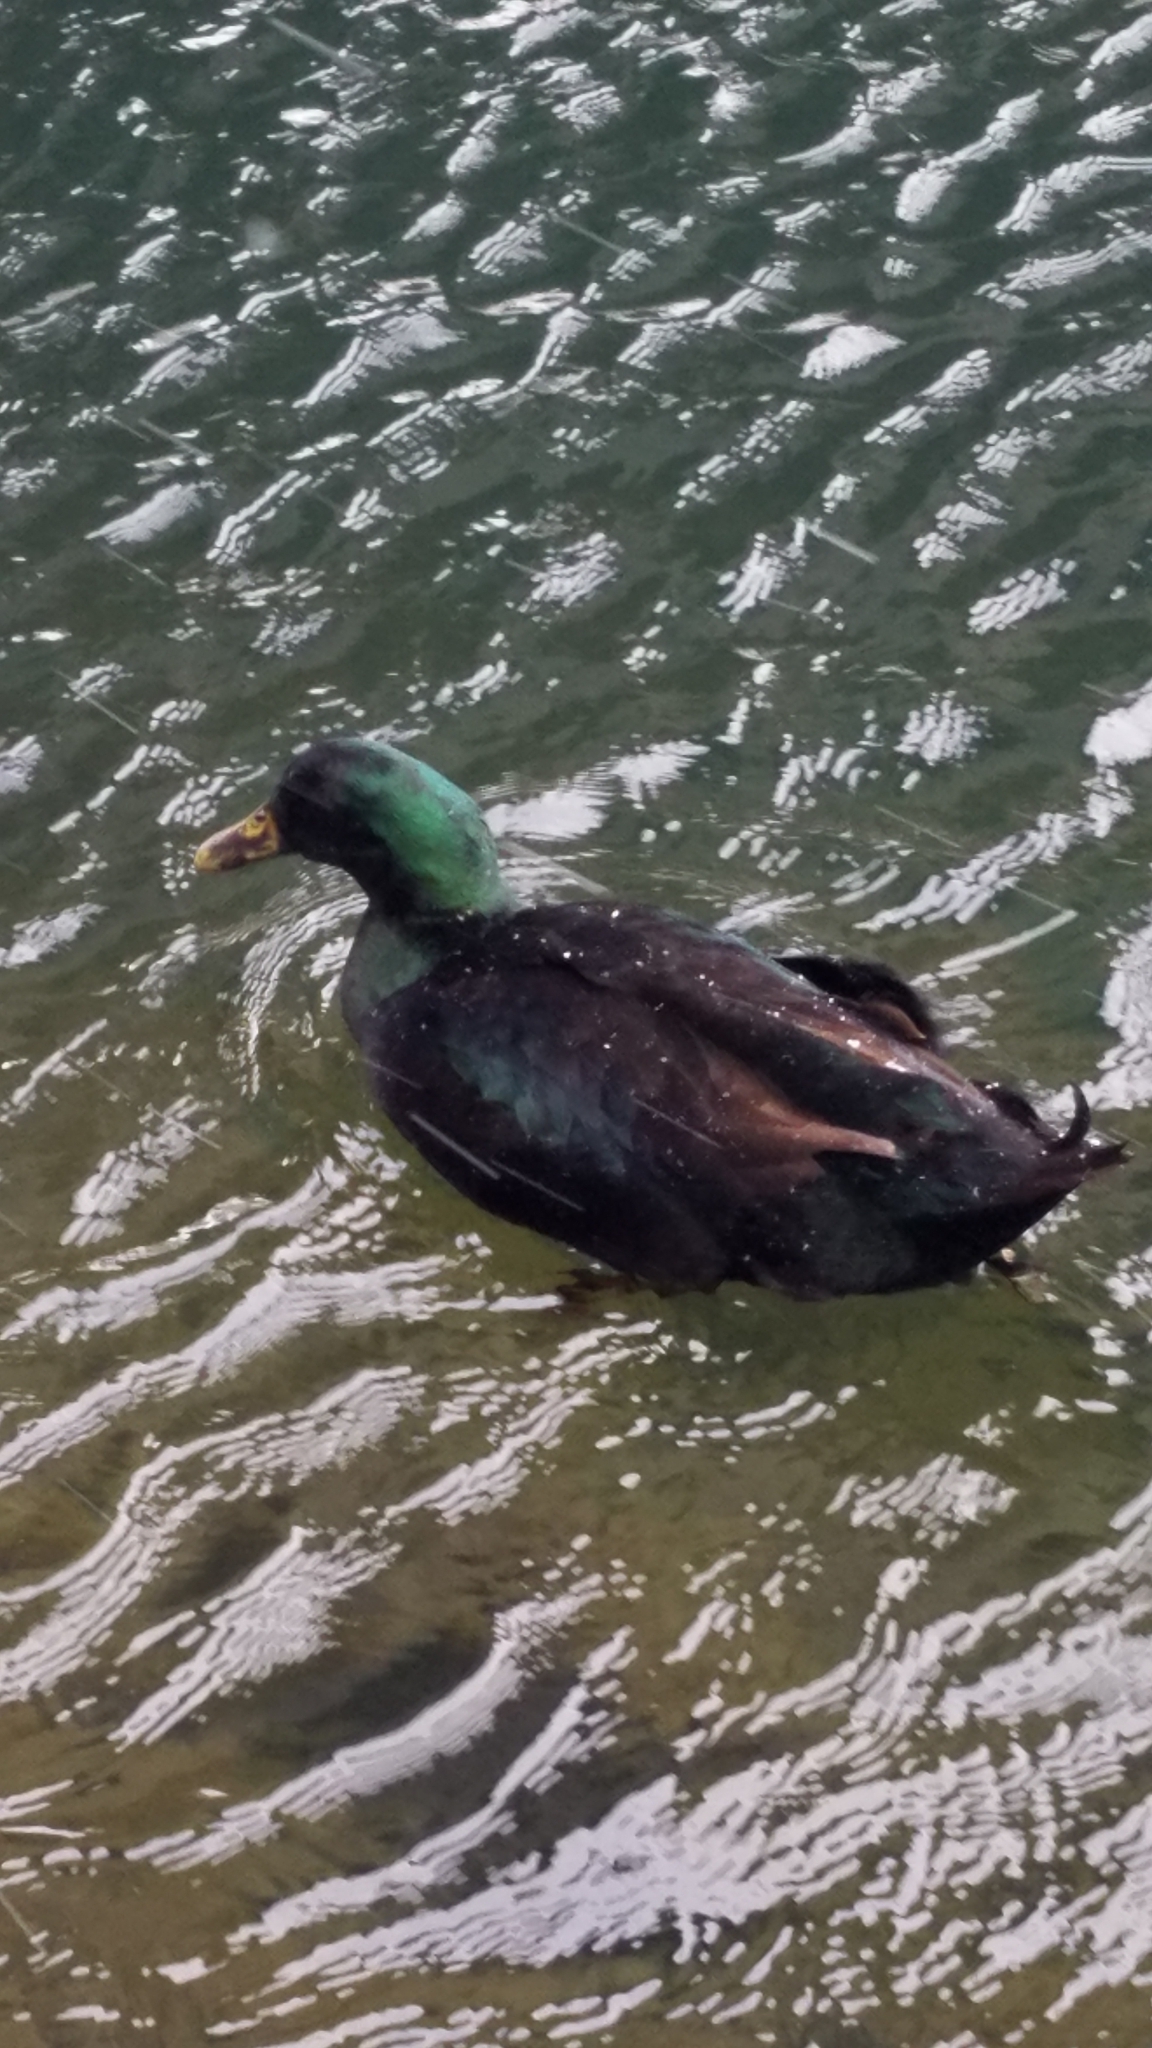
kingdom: Animalia
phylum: Chordata
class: Aves
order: Anseriformes
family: Anatidae
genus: Anas
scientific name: Anas platyrhynchos
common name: Mallard
